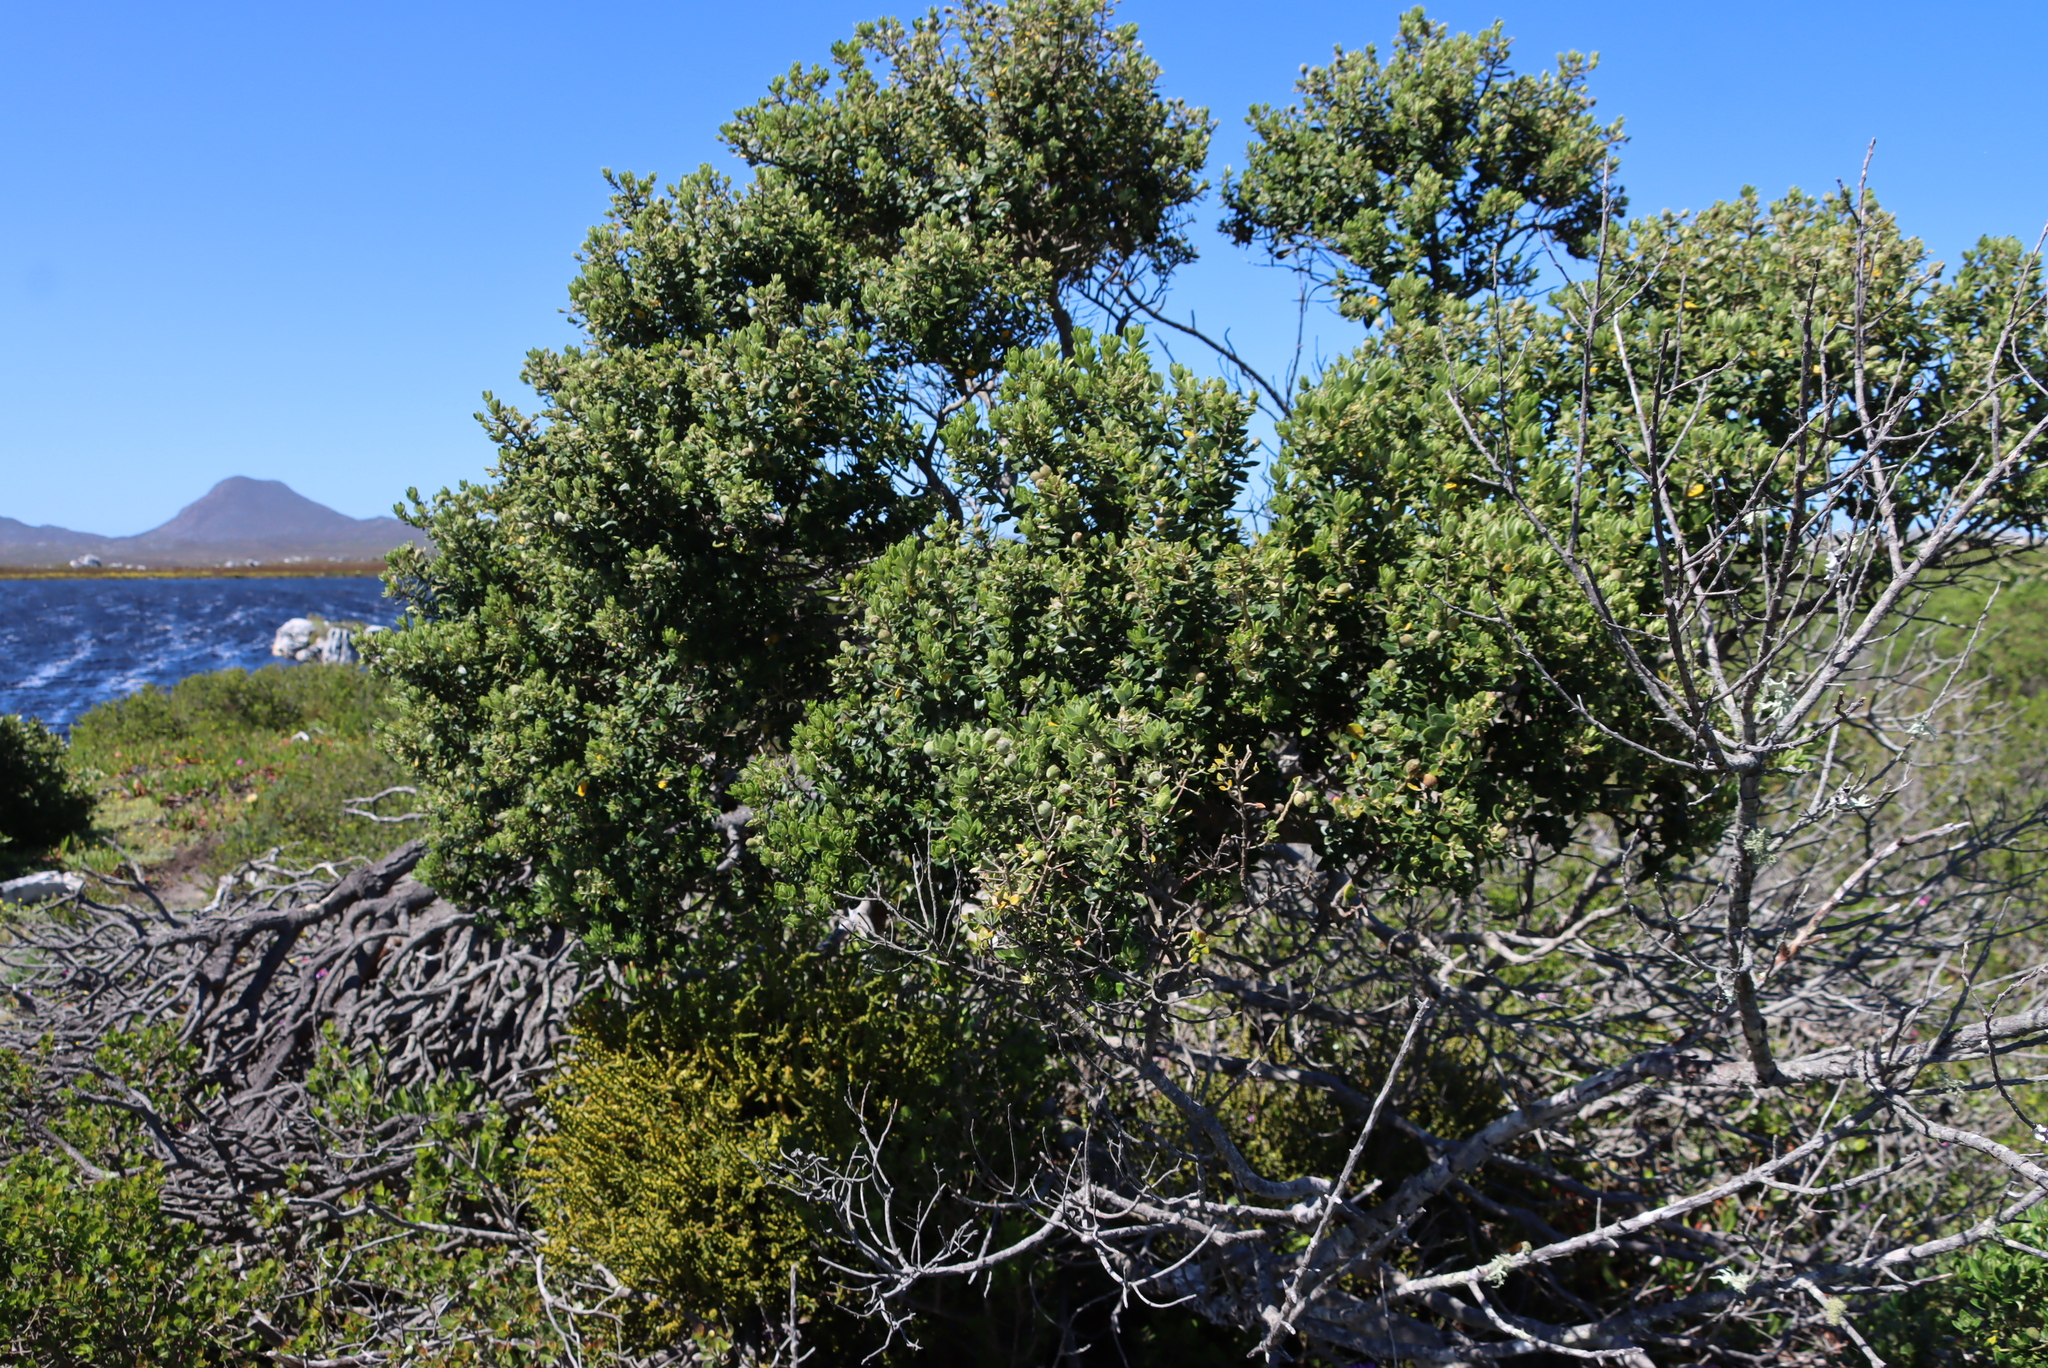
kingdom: Plantae
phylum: Tracheophyta
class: Magnoliopsida
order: Rosales
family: Rhamnaceae
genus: Phylica
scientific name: Phylica buxifolia
